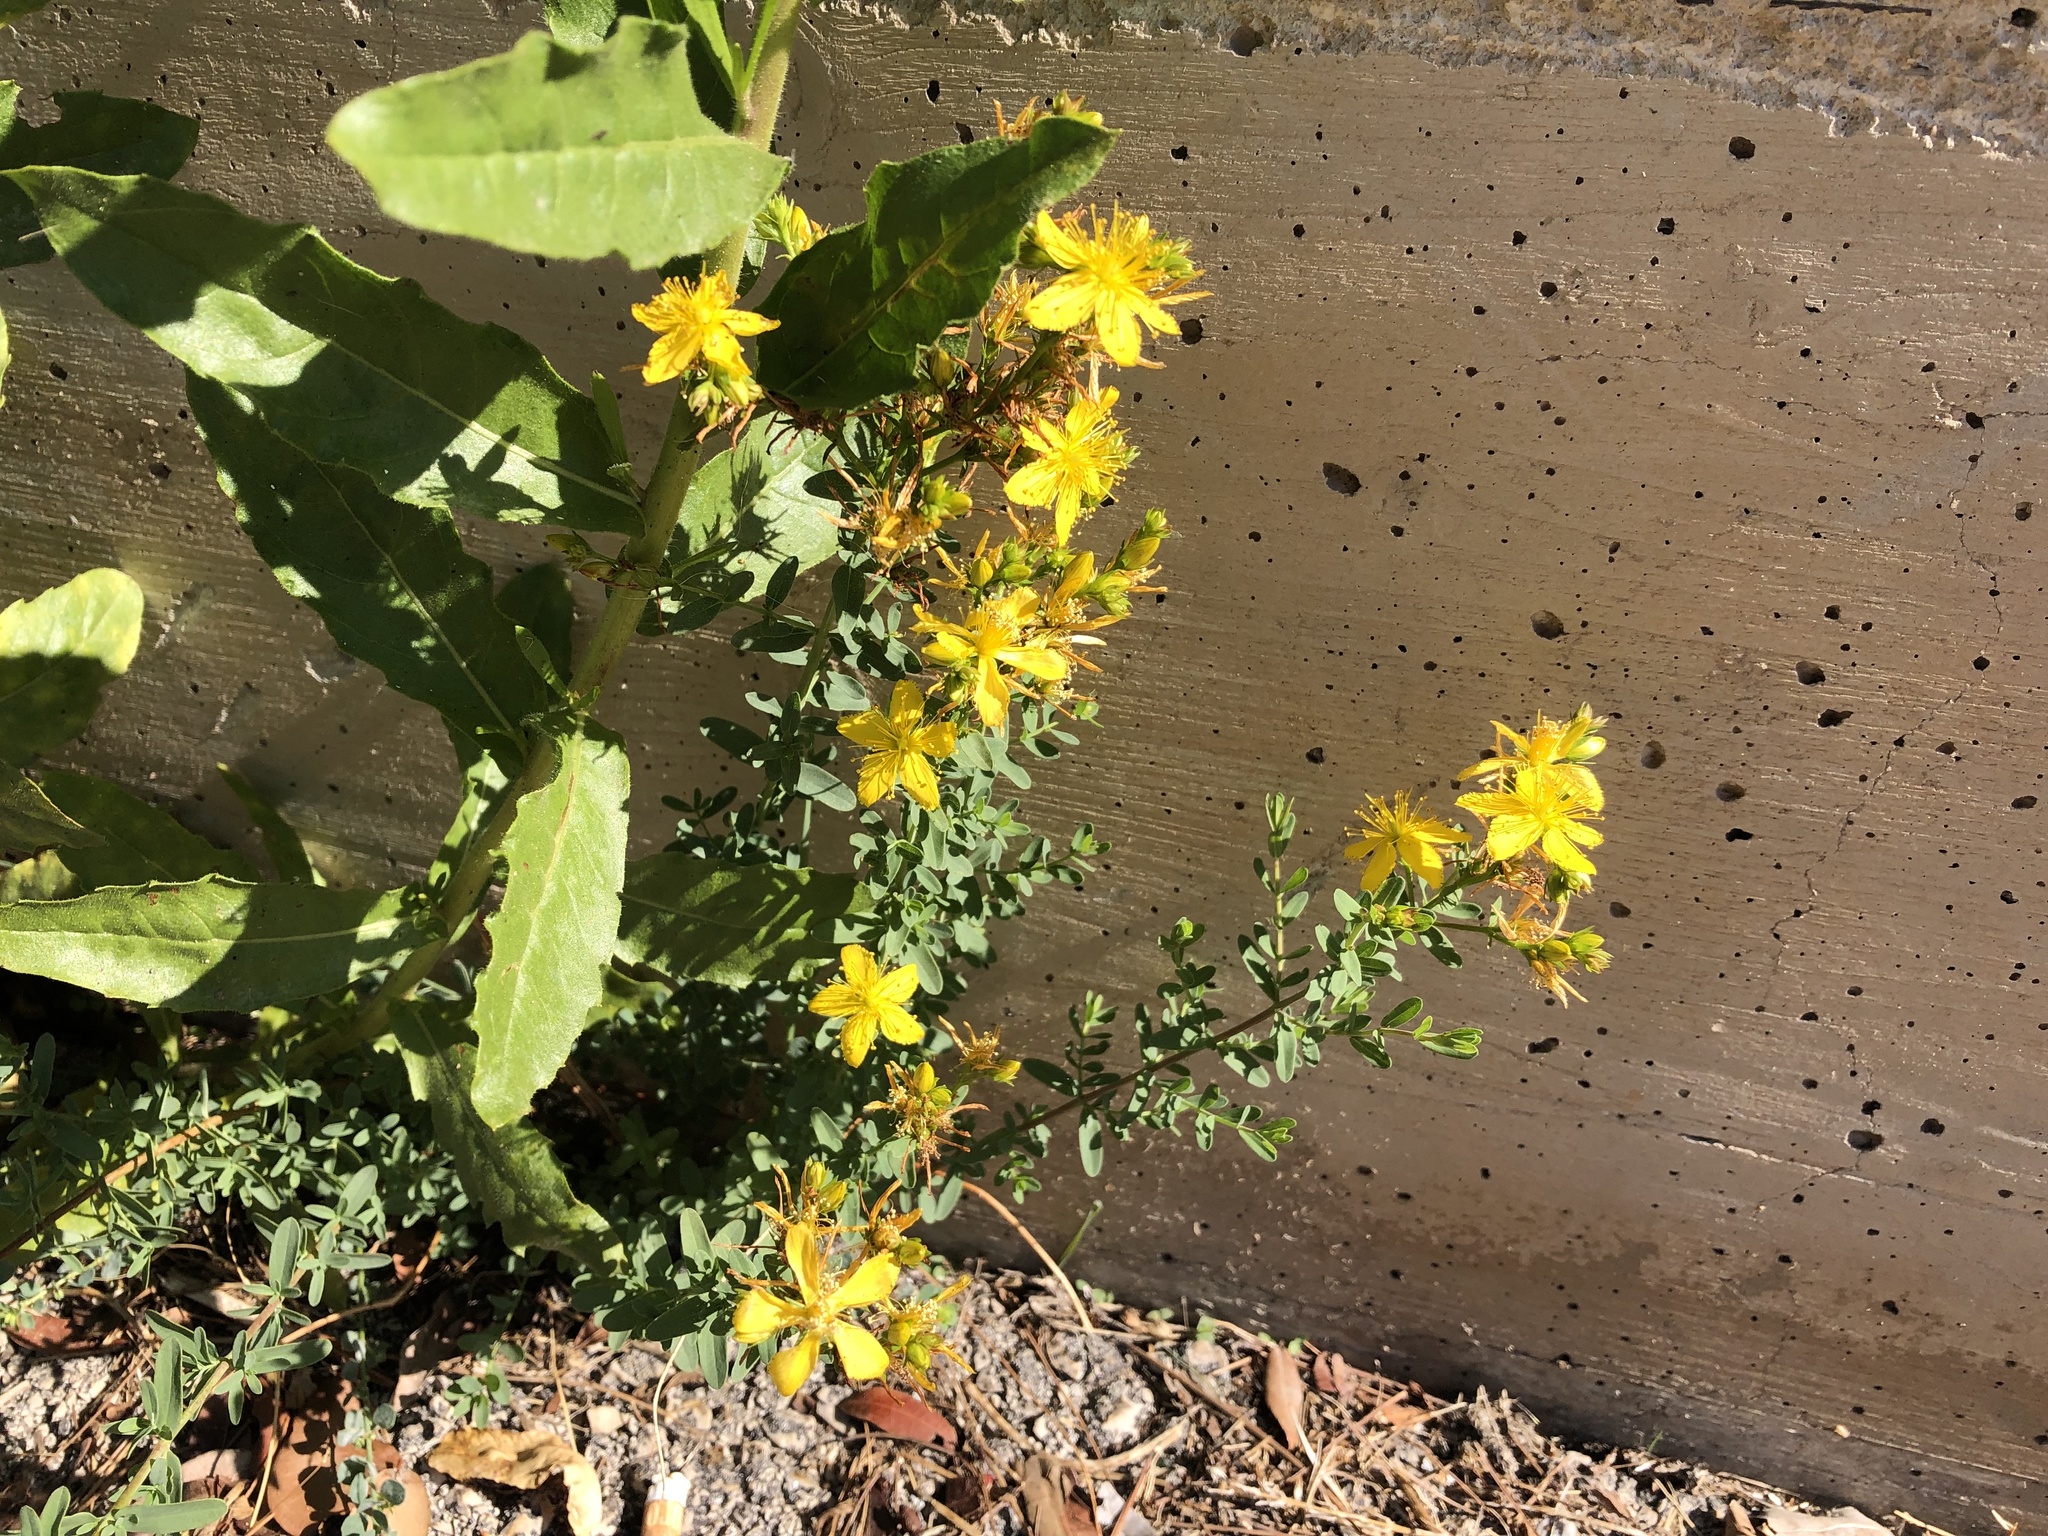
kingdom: Plantae
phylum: Tracheophyta
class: Magnoliopsida
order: Malpighiales
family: Hypericaceae
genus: Hypericum
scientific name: Hypericum perforatum
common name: Common st. johnswort
